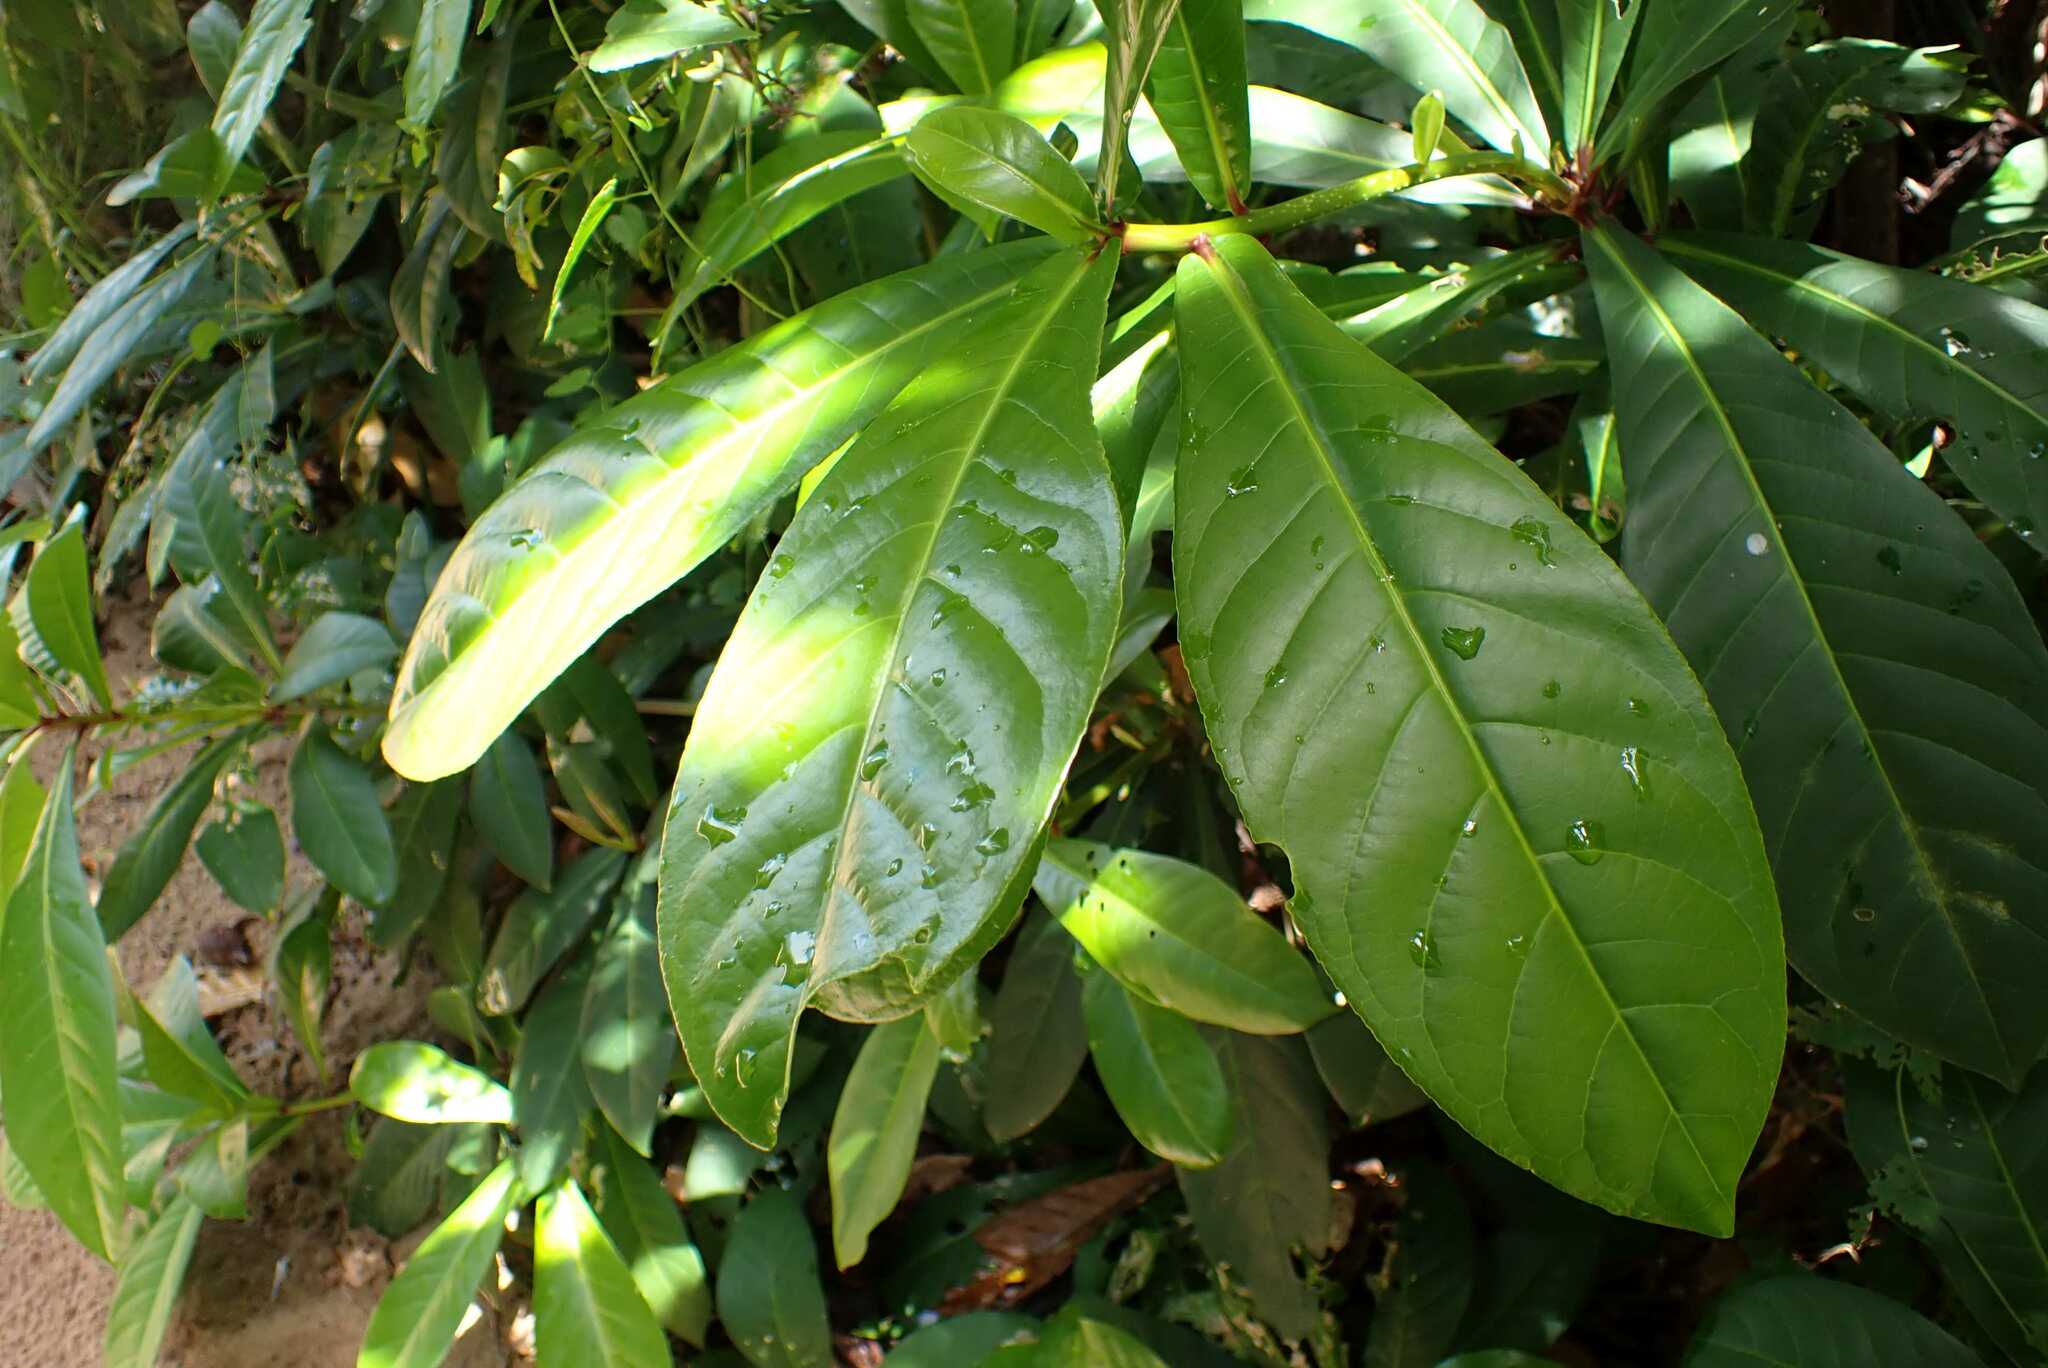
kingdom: Plantae
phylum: Tracheophyta
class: Magnoliopsida
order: Ericales
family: Lecythidaceae
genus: Barringtonia
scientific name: Barringtonia racemosa
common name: Brackwater mangrove
